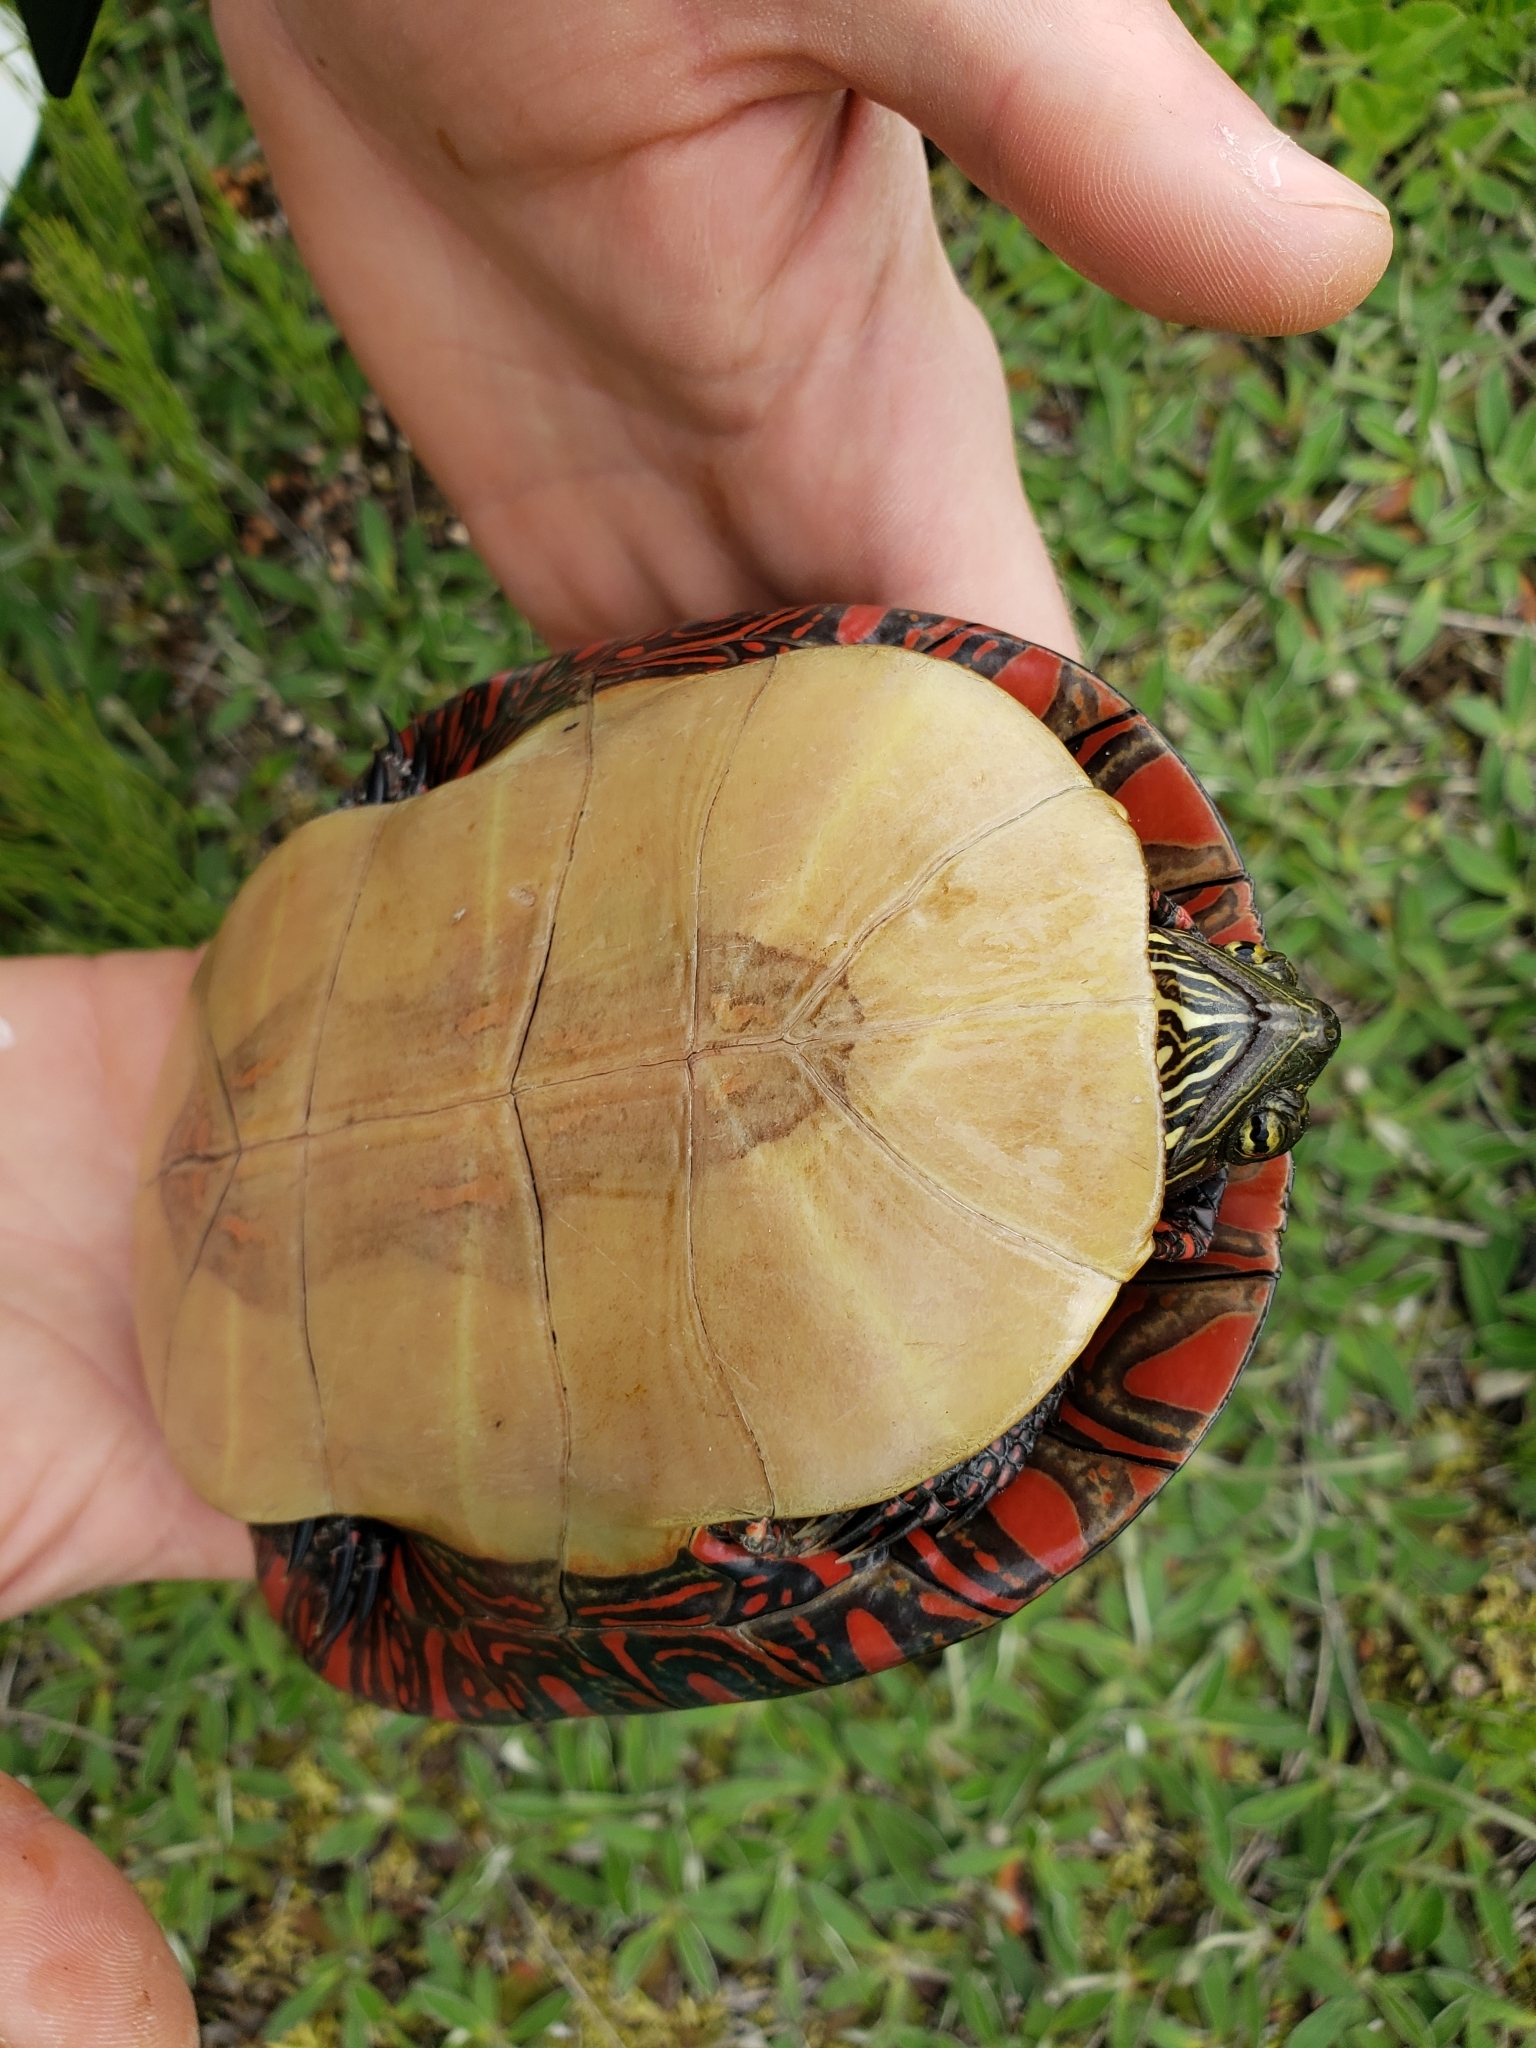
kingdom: Animalia
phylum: Chordata
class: Testudines
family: Emydidae
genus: Chrysemys
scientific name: Chrysemys picta
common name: Painted turtle
